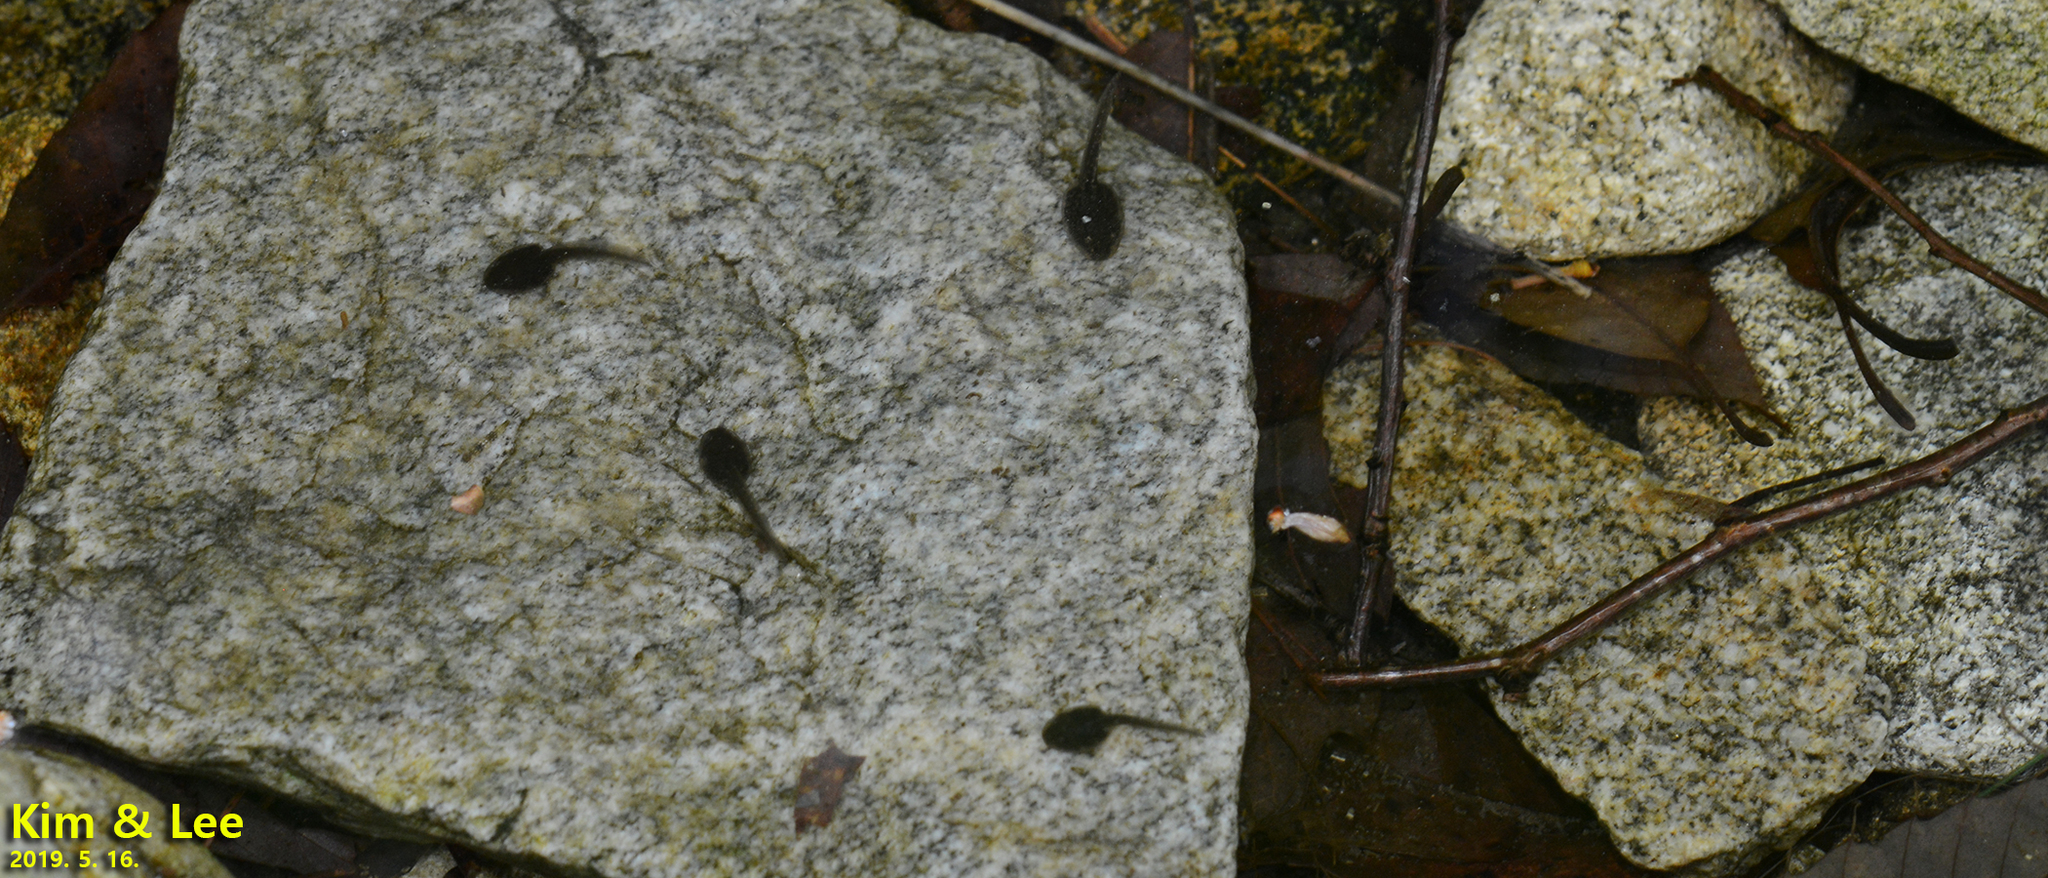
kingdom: Animalia
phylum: Chordata
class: Amphibia
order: Anura
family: Ranidae
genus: Rana
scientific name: Rana huanrenensis
